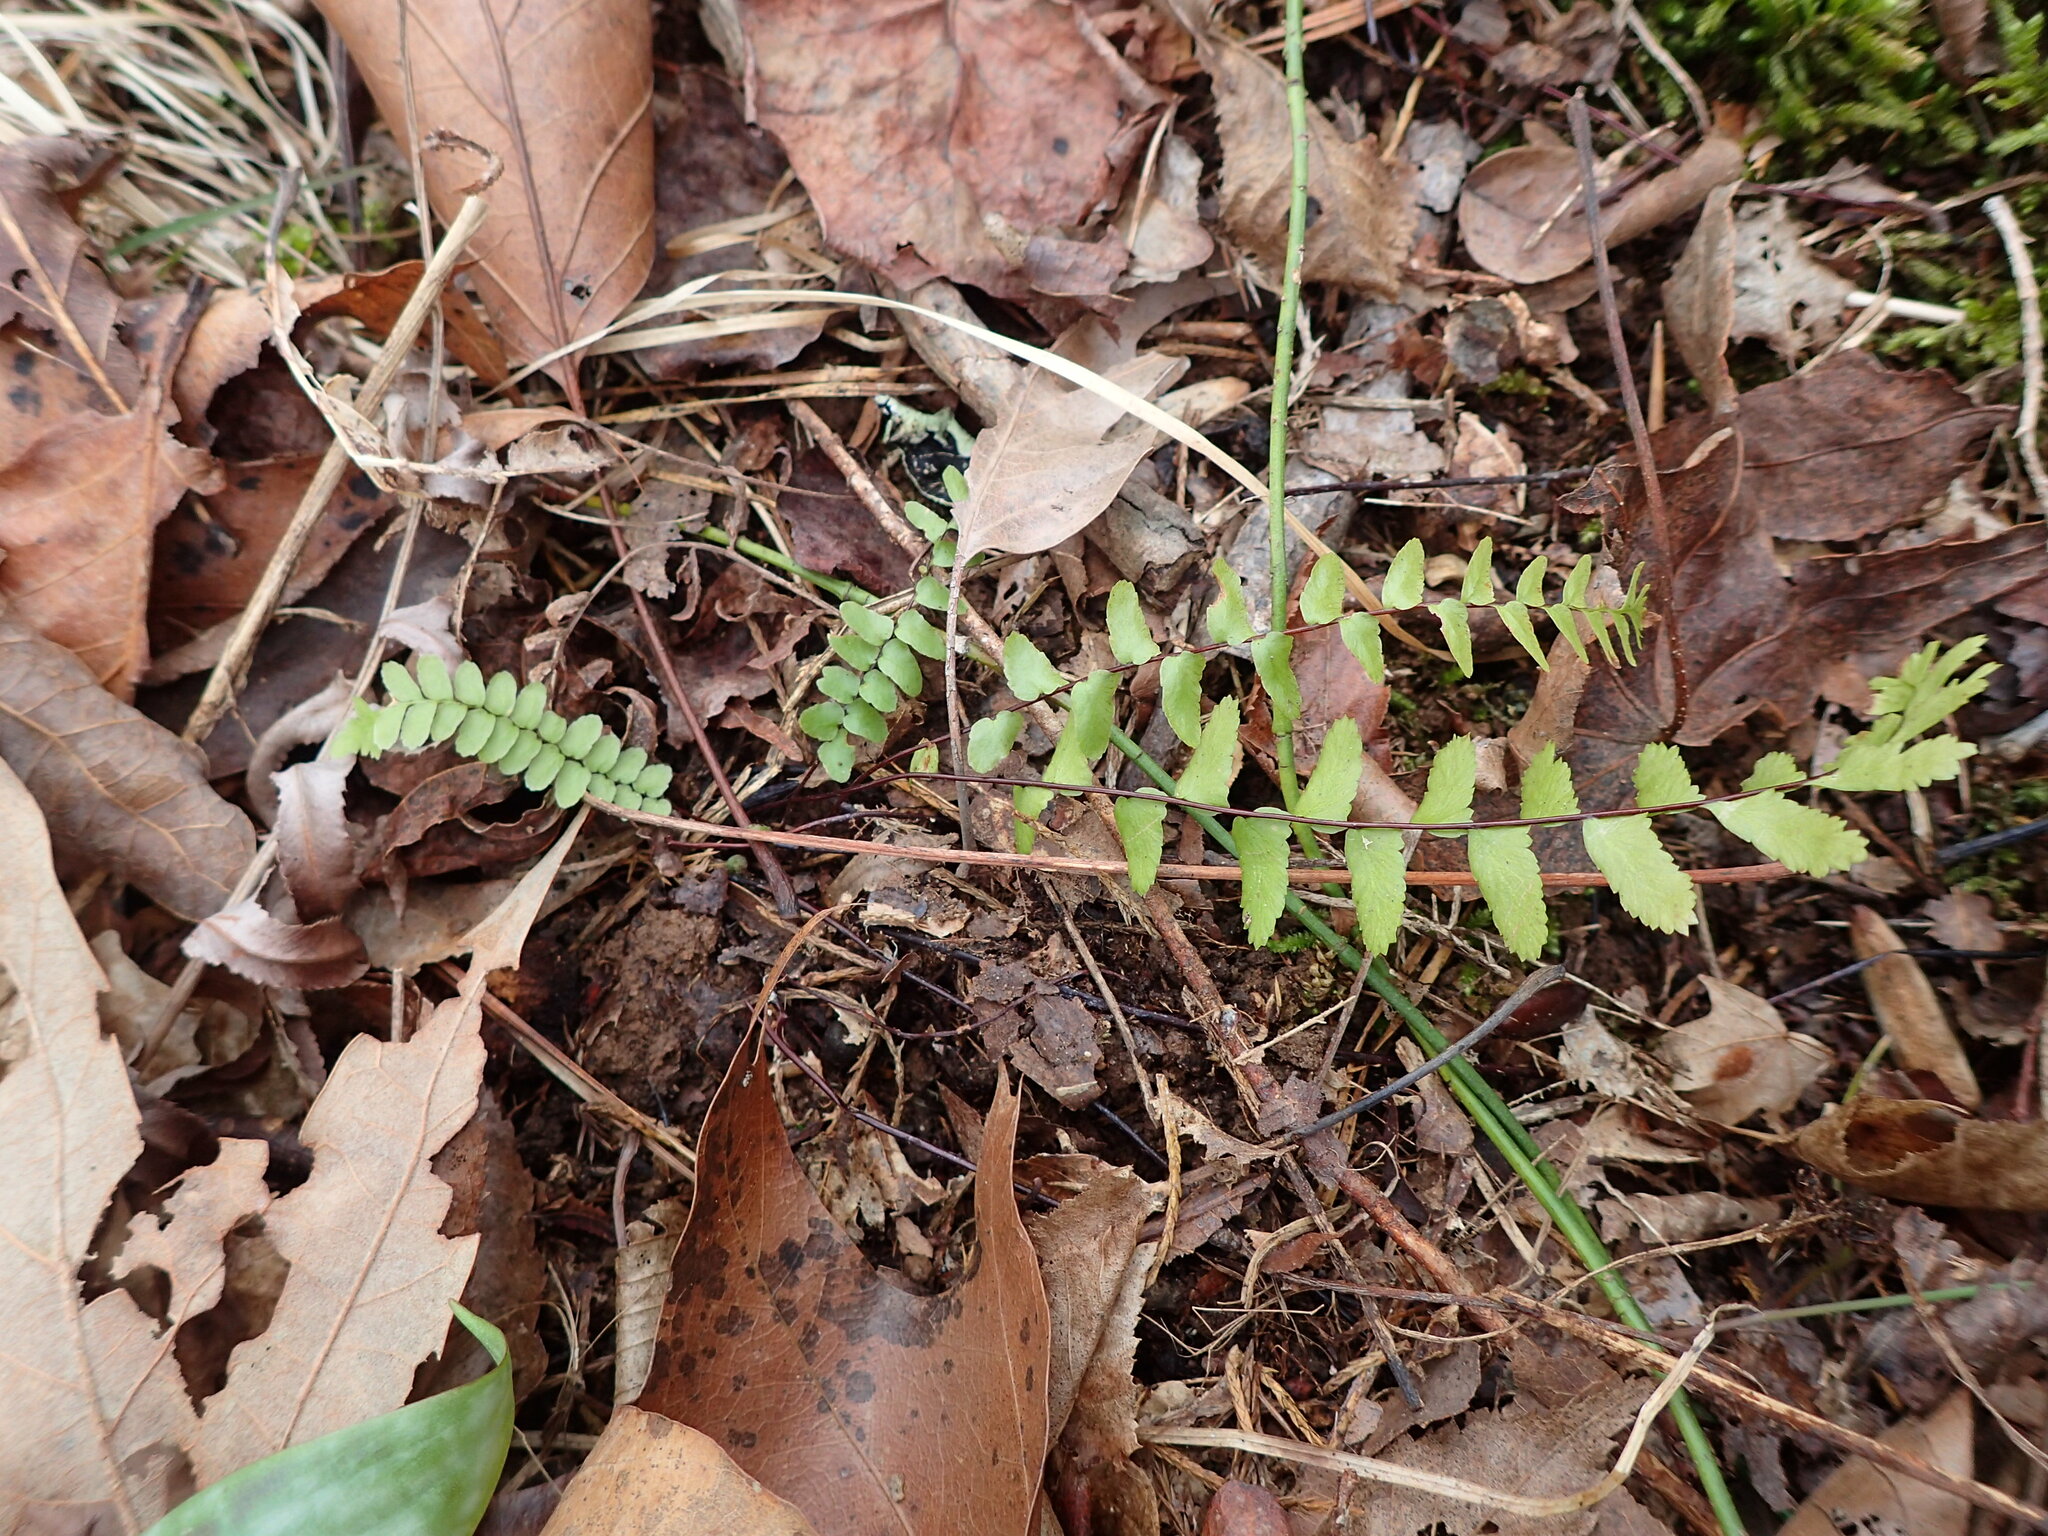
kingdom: Plantae
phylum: Tracheophyta
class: Polypodiopsida
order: Polypodiales
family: Aspleniaceae
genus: Asplenium
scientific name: Asplenium platyneuron
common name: Ebony spleenwort
